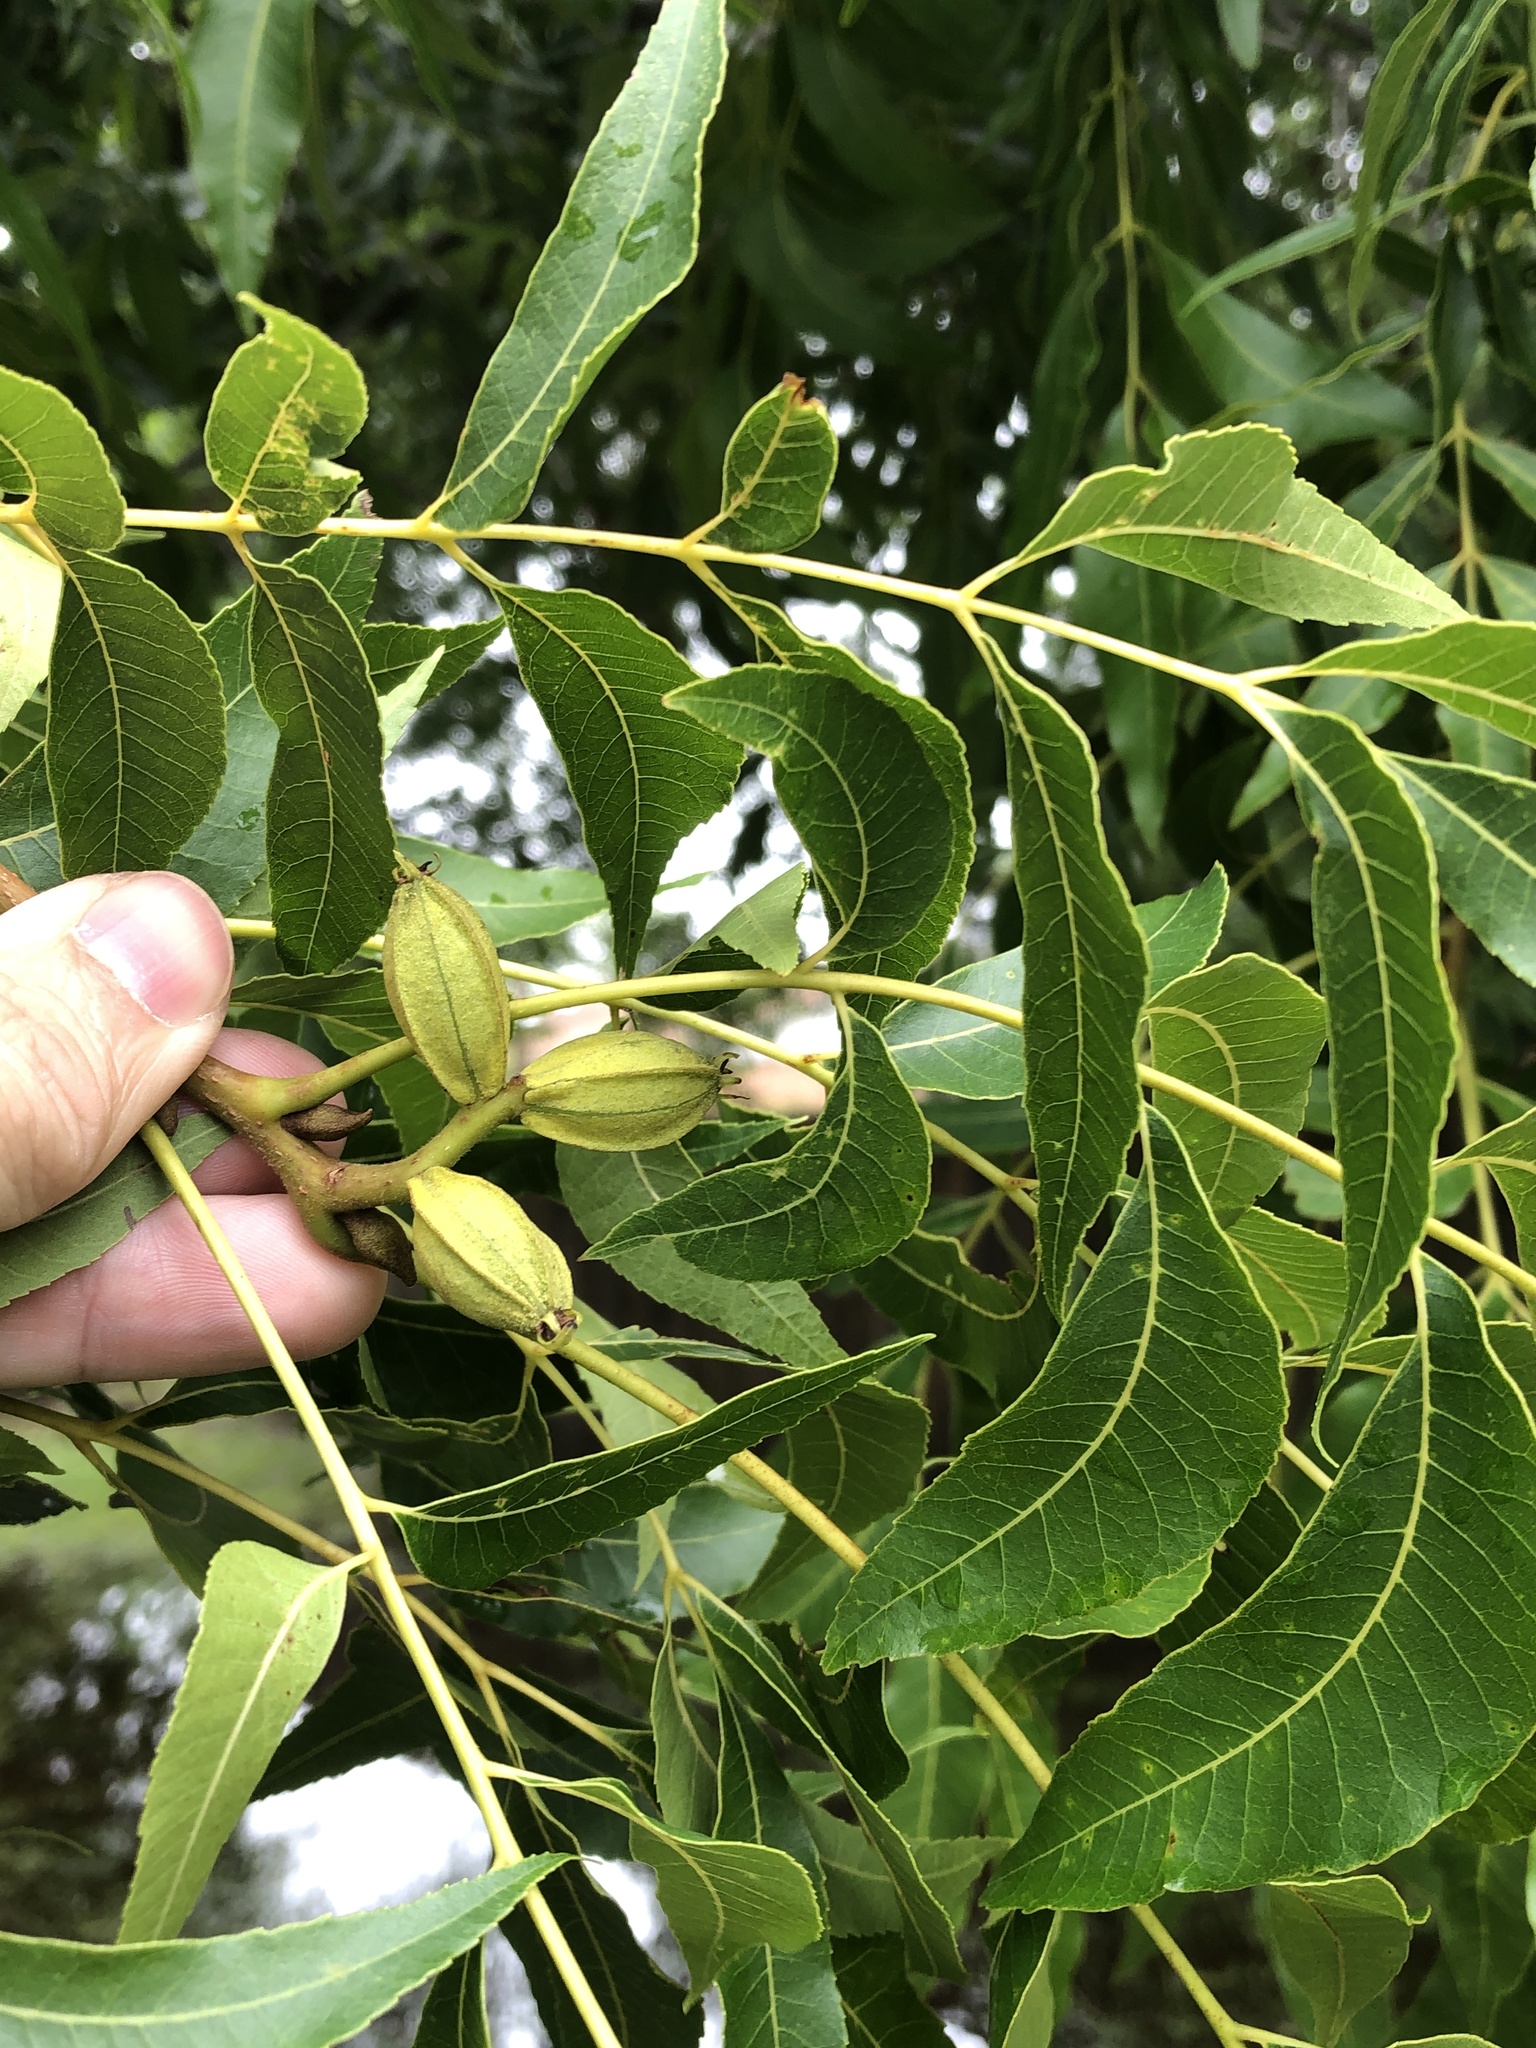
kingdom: Plantae
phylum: Tracheophyta
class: Magnoliopsida
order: Fagales
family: Juglandaceae
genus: Carya
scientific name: Carya illinoinensis
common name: Pecan
